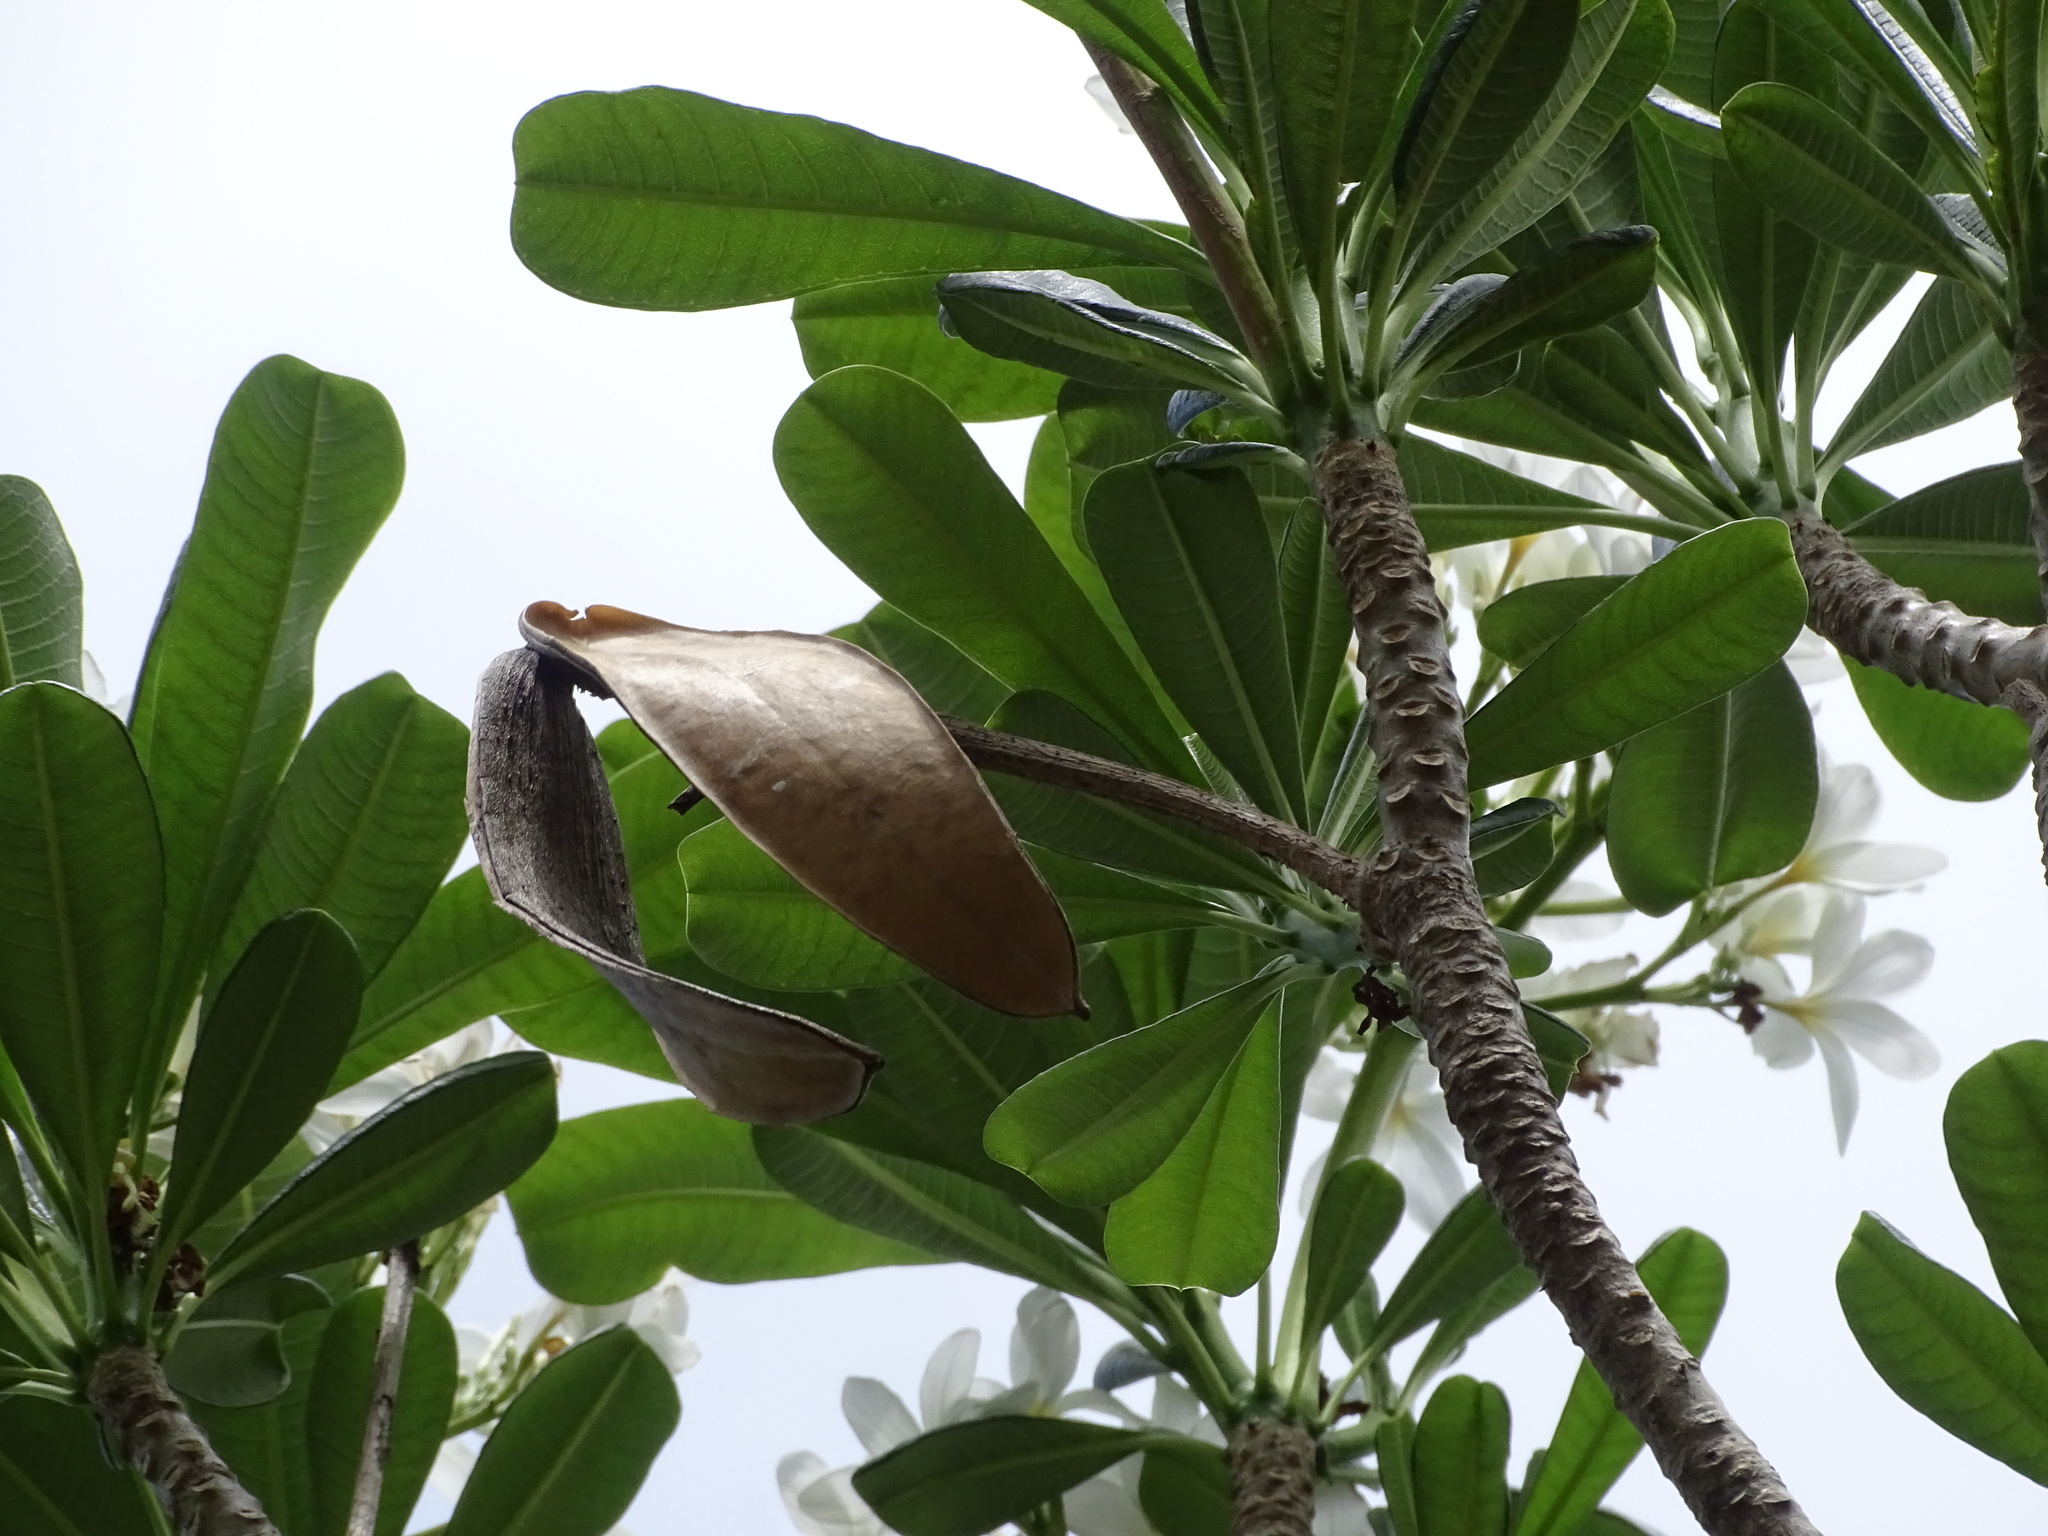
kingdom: Plantae
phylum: Tracheophyta
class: Magnoliopsida
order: Gentianales
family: Apocynaceae
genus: Plumeria
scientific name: Plumeria obtusa
